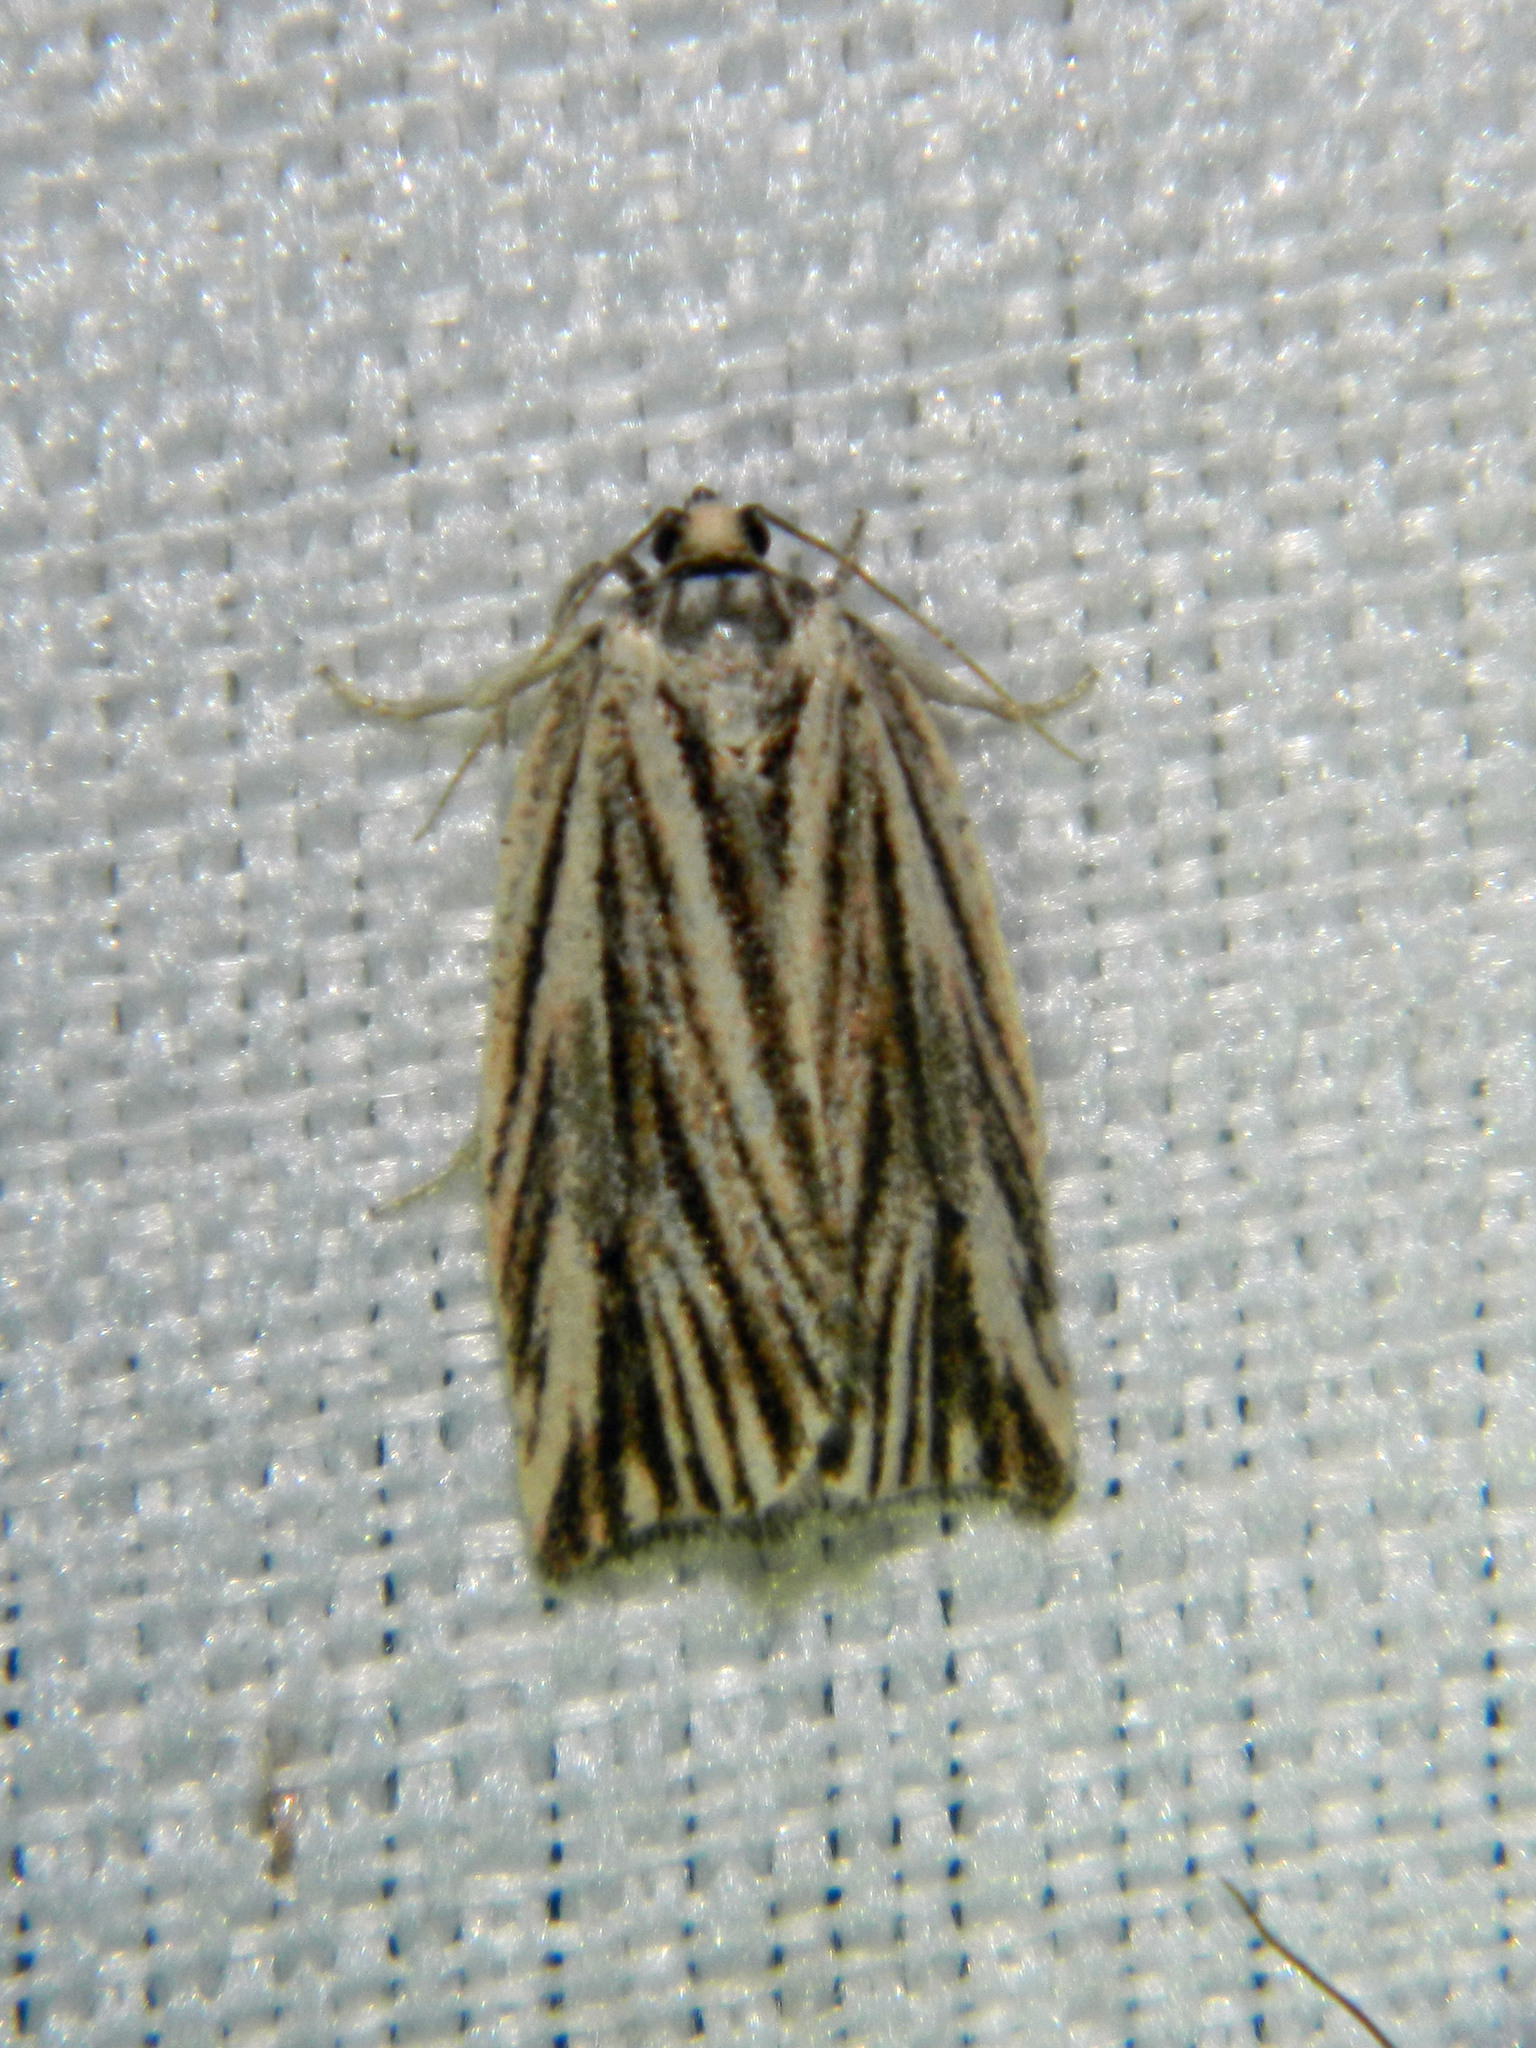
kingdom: Animalia
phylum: Arthropoda
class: Insecta
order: Lepidoptera
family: Tortricidae
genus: Archips
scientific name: Archips strianus
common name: Striated tortrix moth
